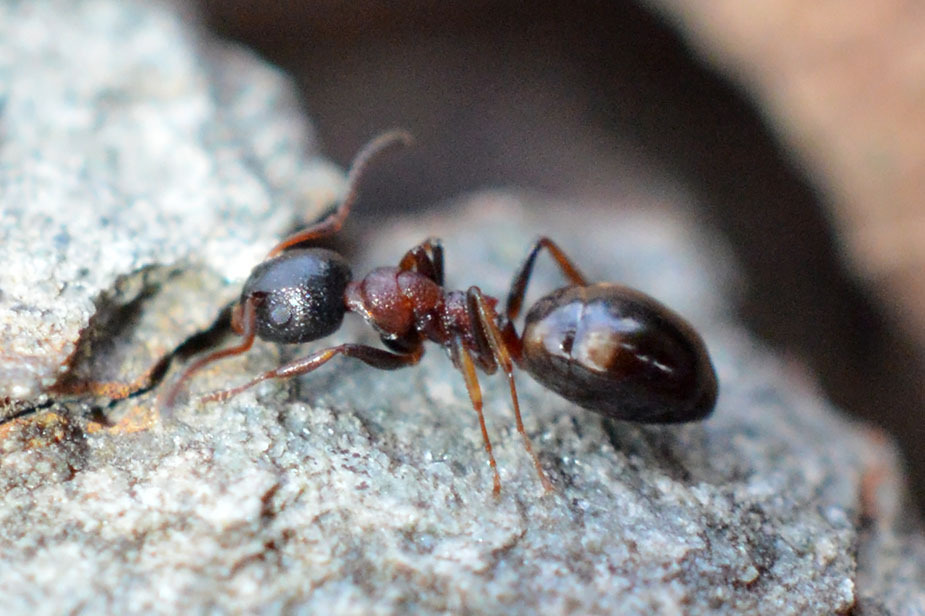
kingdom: Animalia
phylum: Arthropoda
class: Insecta
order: Hymenoptera
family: Formicidae
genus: Dolichoderus
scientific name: Dolichoderus quadripunctatus
